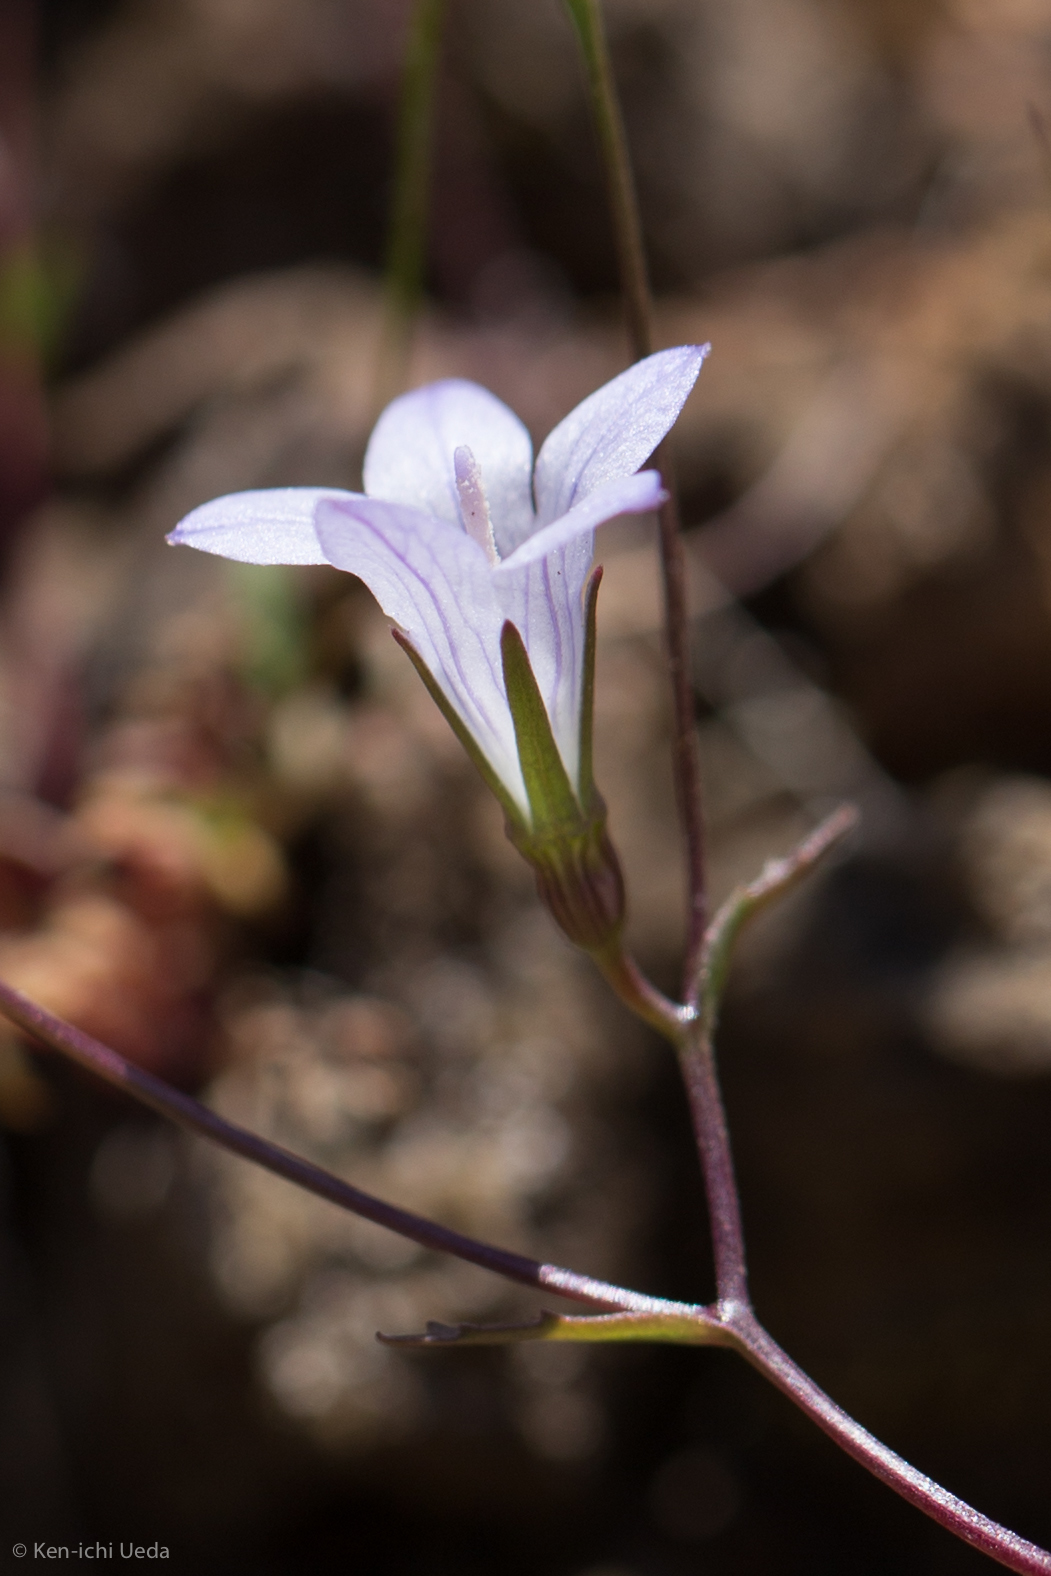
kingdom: Plantae
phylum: Tracheophyta
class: Magnoliopsida
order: Asterales
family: Campanulaceae
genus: Ravenella
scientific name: Ravenella exigua
